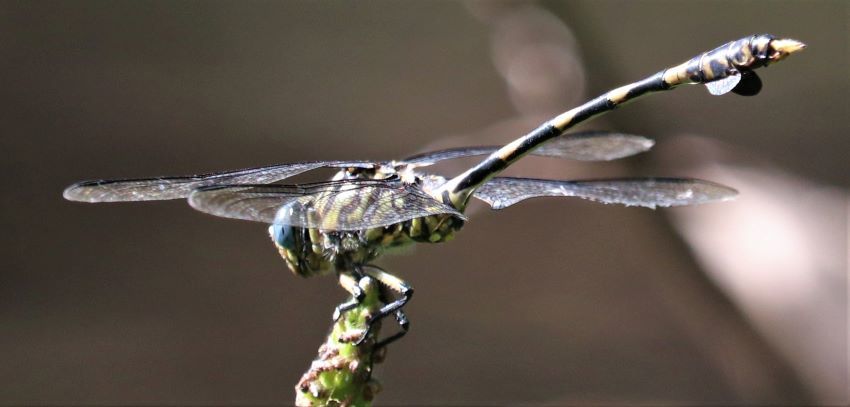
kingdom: Animalia
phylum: Arthropoda
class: Insecta
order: Odonata
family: Gomphidae
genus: Ictinogomphus
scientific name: Ictinogomphus ferox
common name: Common tiger
